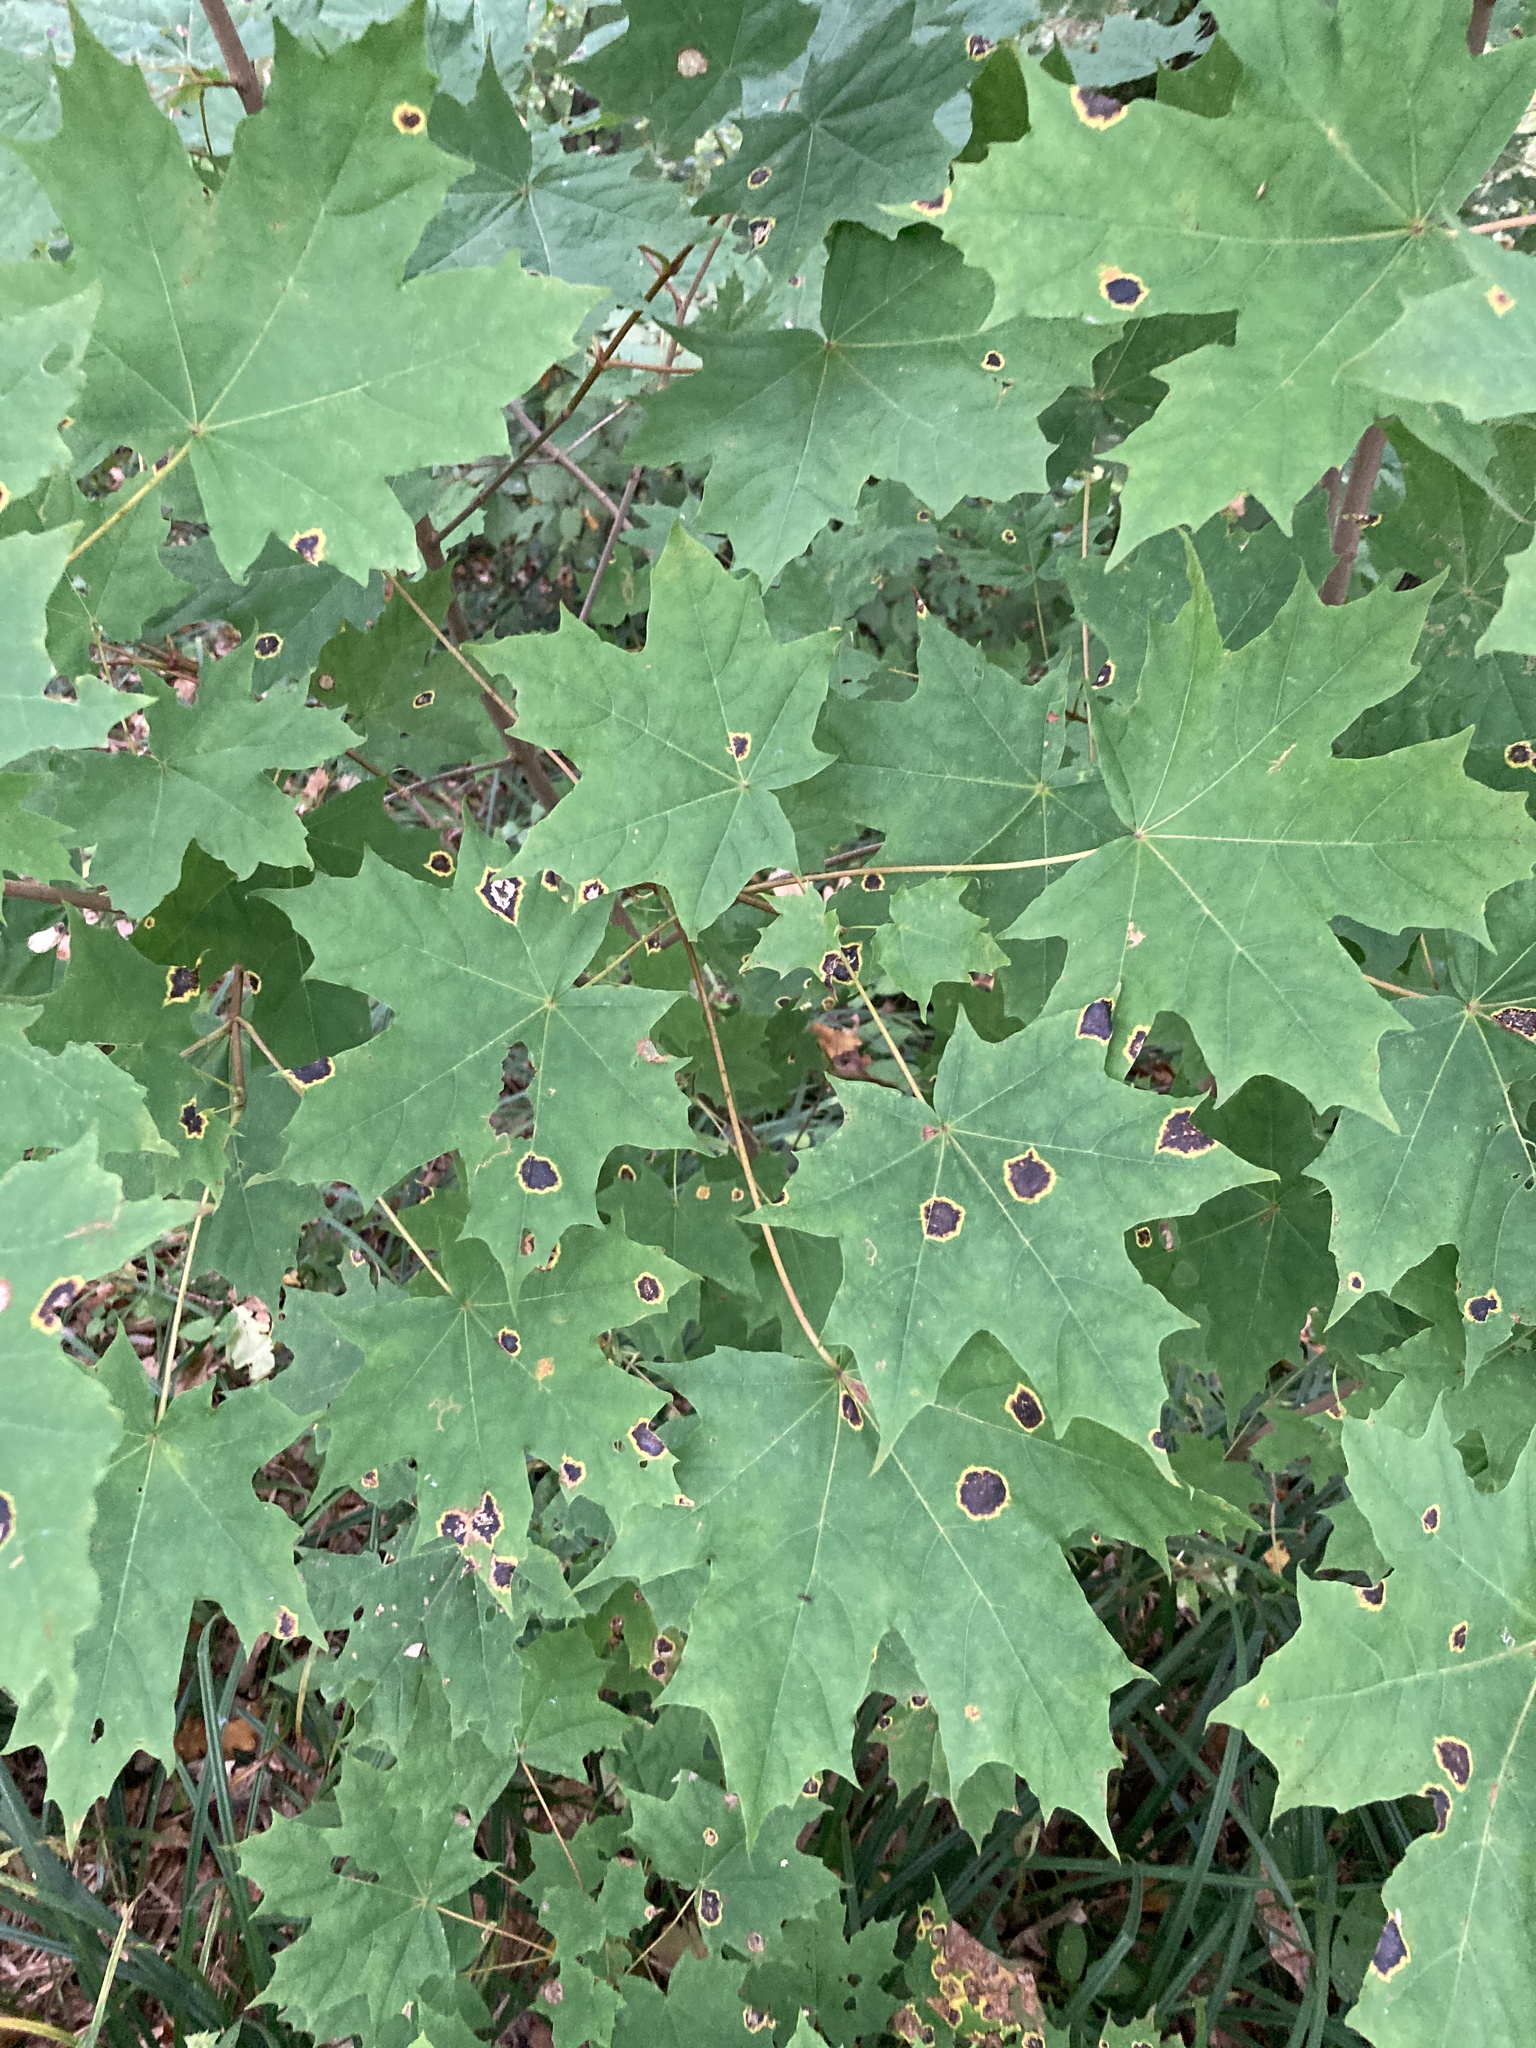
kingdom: Plantae
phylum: Tracheophyta
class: Magnoliopsida
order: Sapindales
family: Sapindaceae
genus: Acer
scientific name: Acer platanoides
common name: Norway maple
